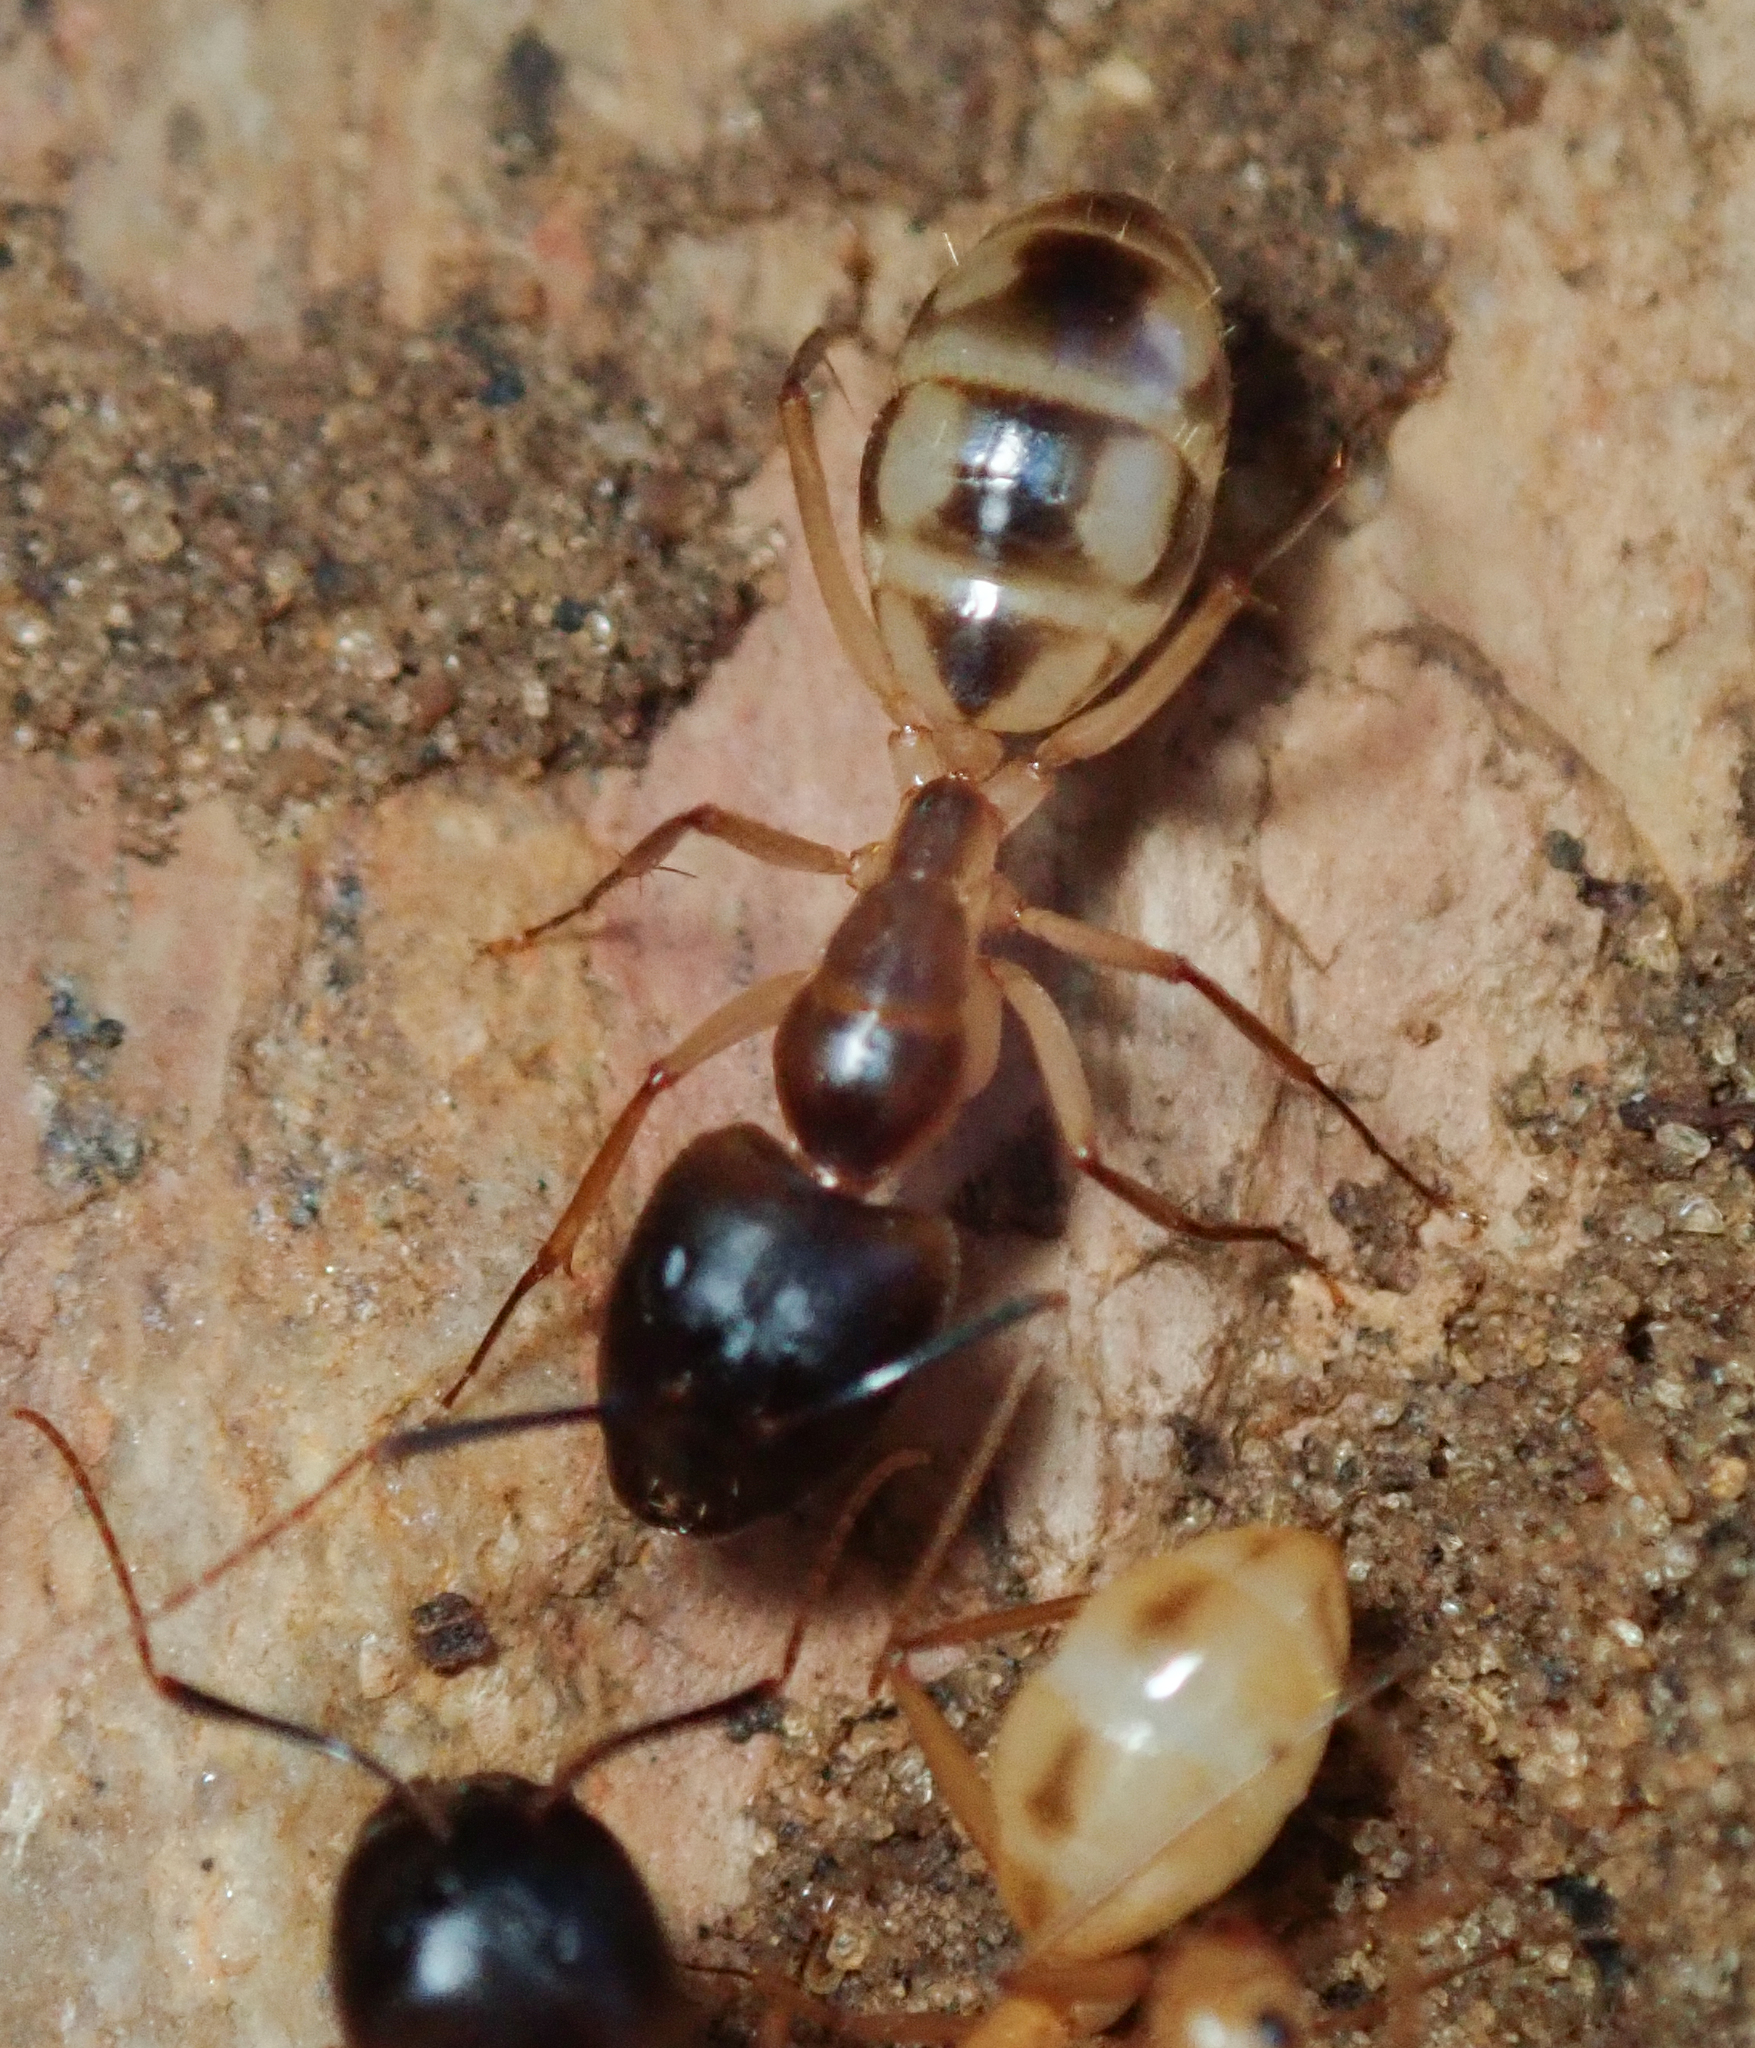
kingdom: Animalia
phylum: Arthropoda
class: Insecta
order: Hymenoptera
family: Formicidae
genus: Camponotus
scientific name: Camponotus havilandi
